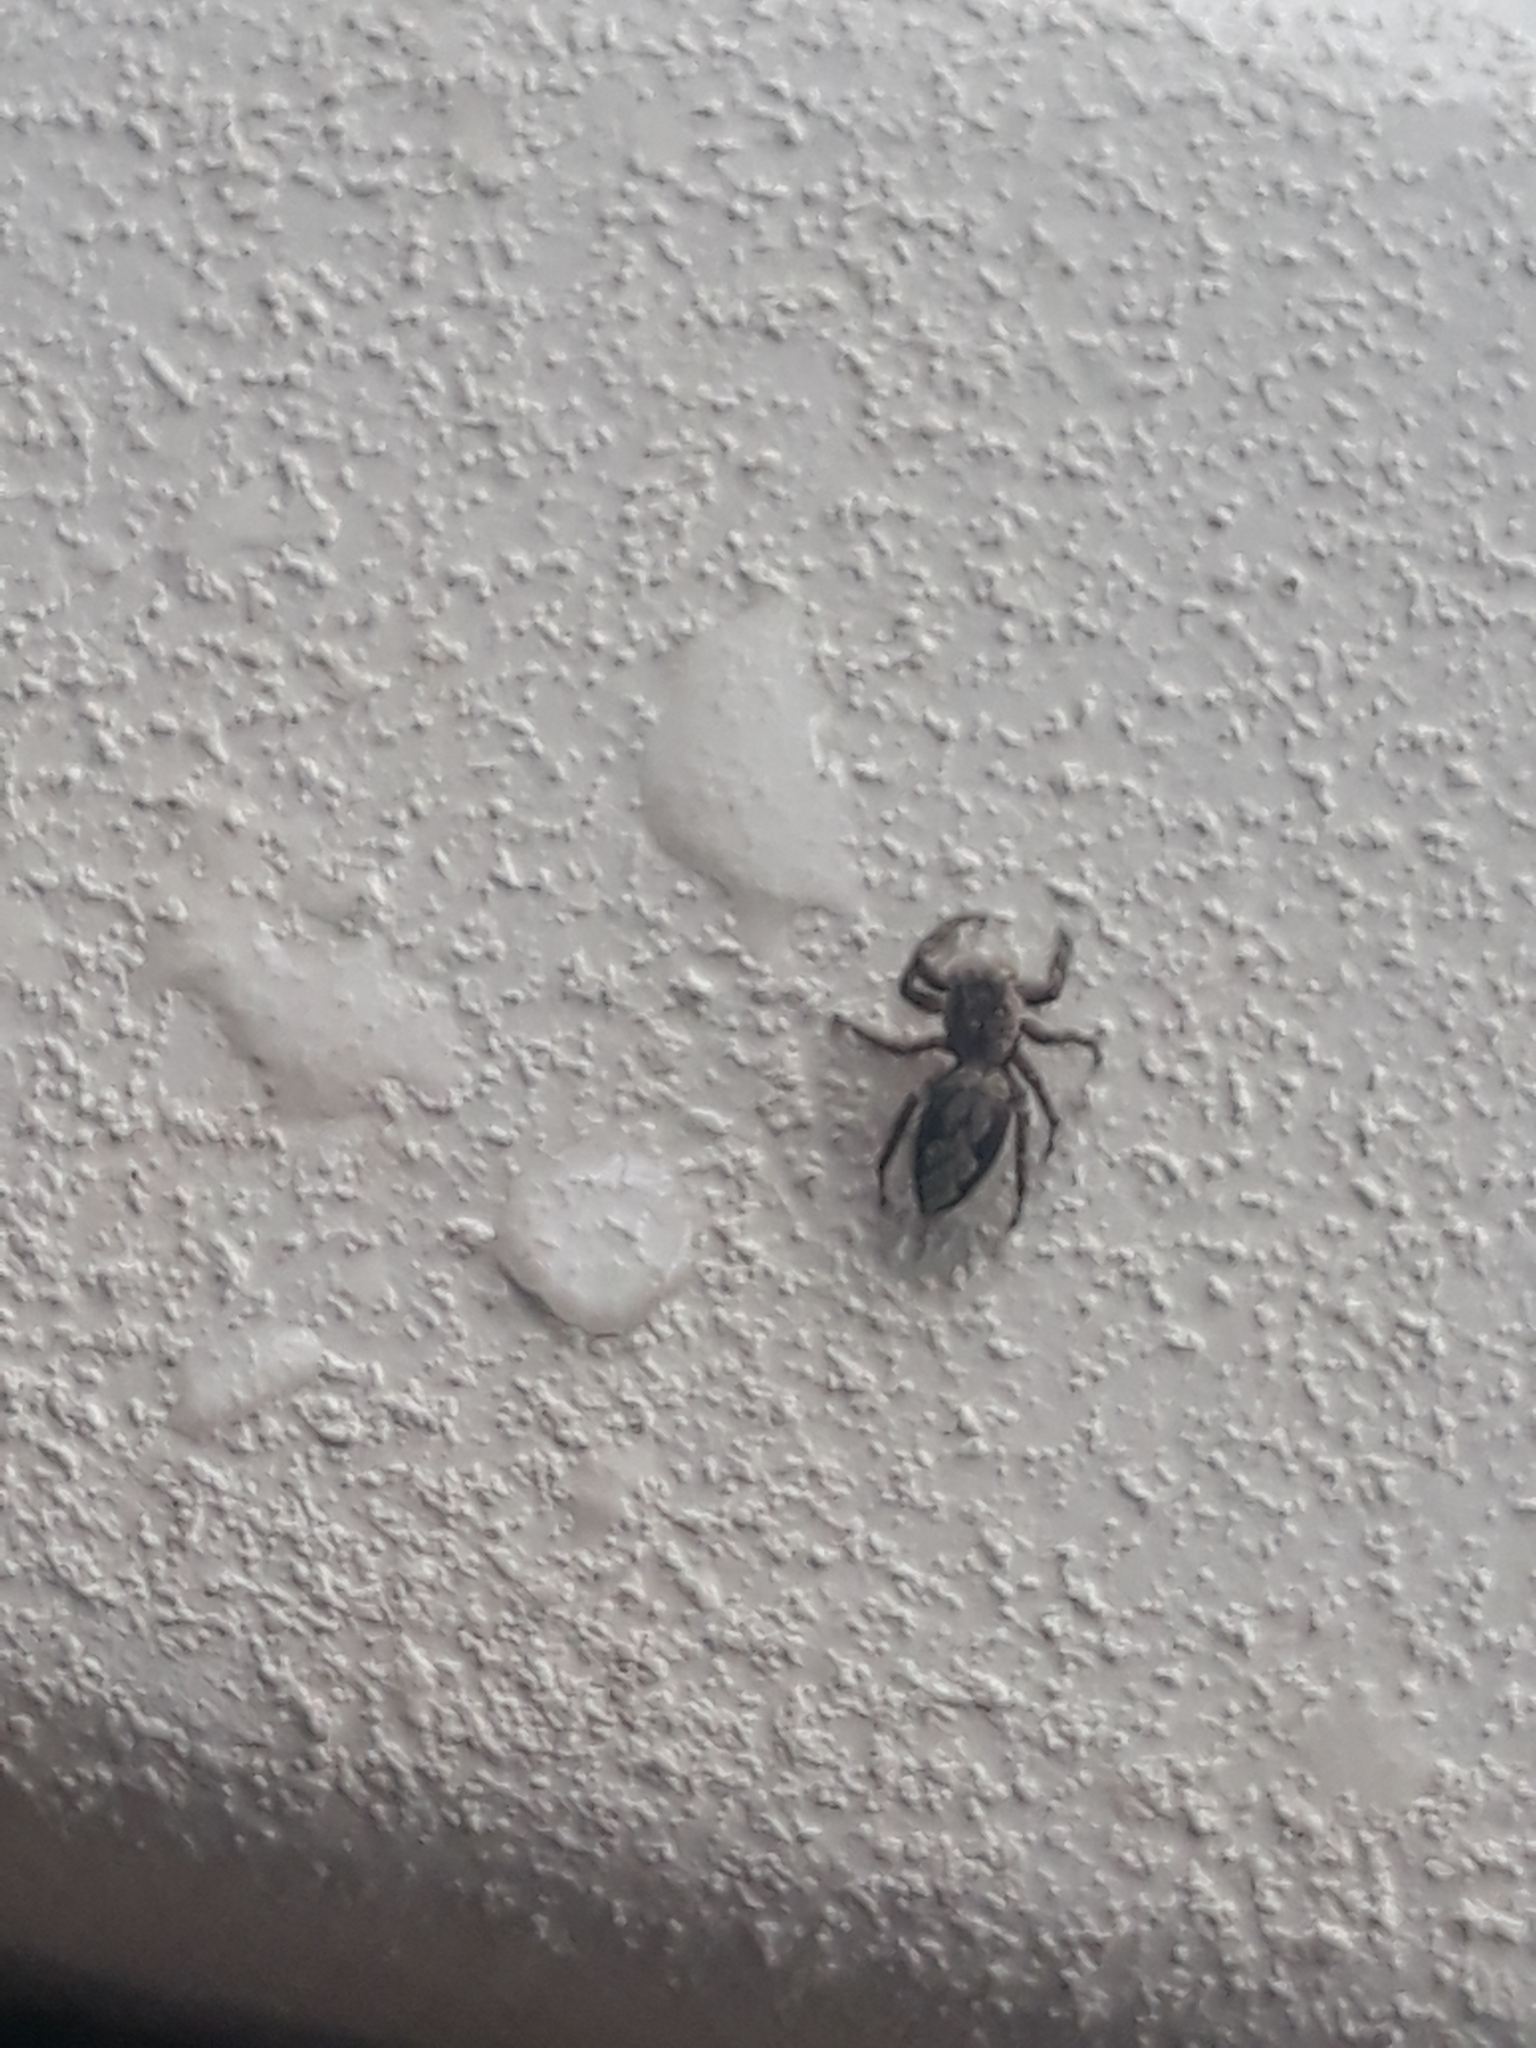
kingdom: Animalia
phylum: Arthropoda
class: Arachnida
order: Araneae
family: Salticidae
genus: Platycryptus
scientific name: Platycryptus undatus
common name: Tan jumping spider
